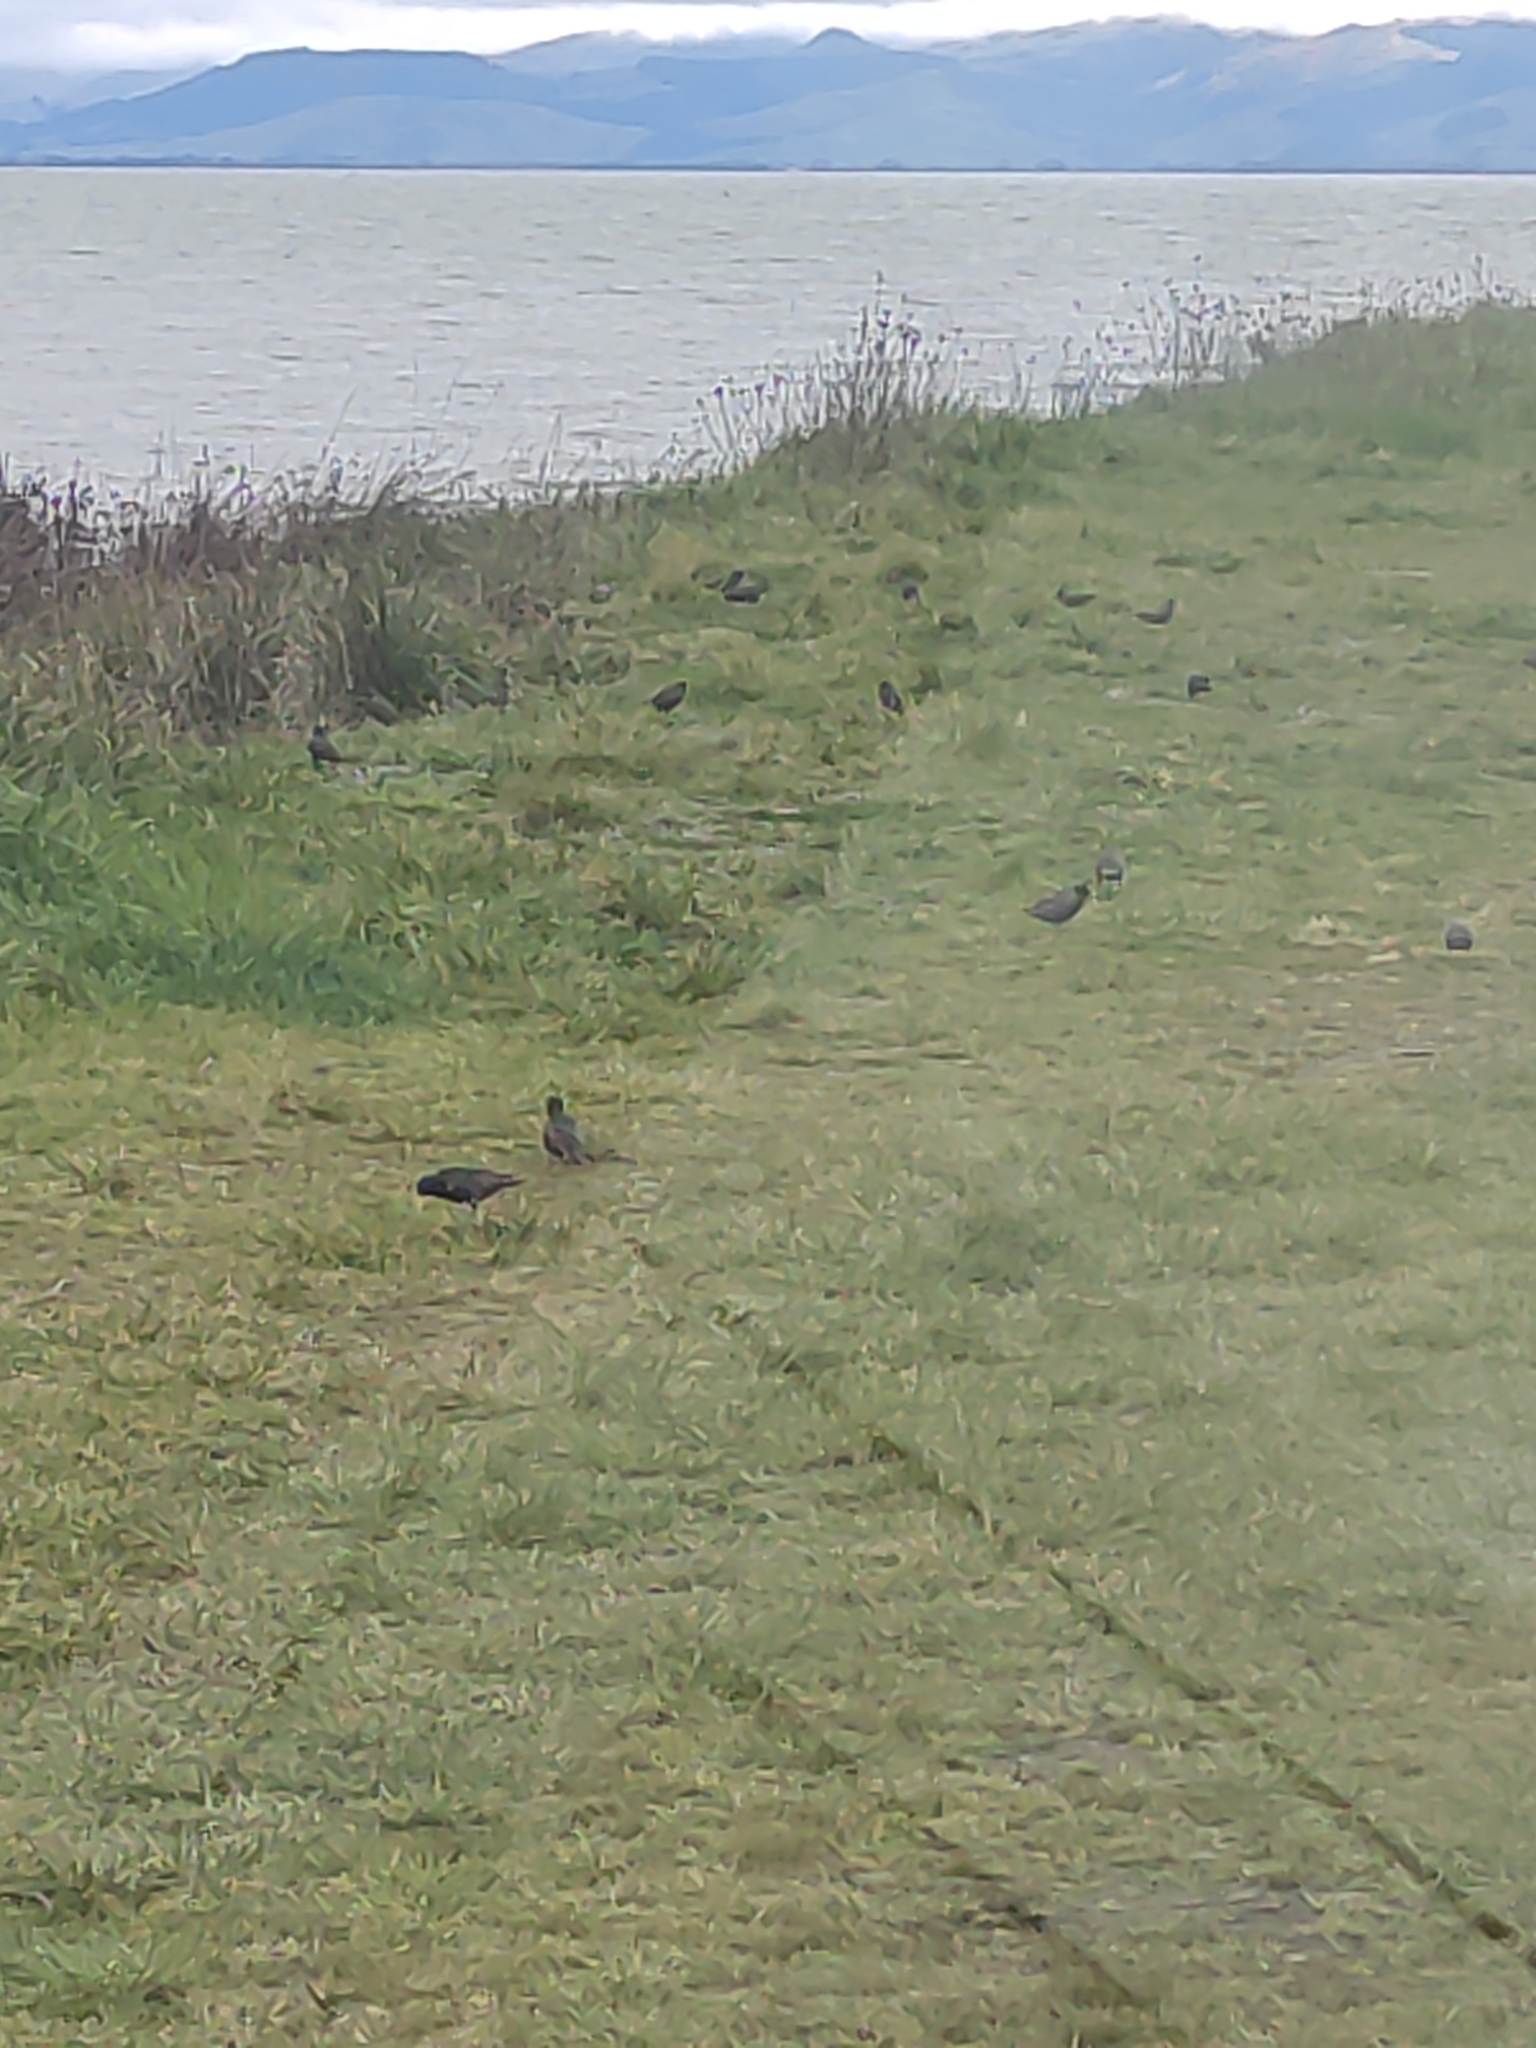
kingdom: Animalia
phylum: Chordata
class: Aves
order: Passeriformes
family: Sturnidae
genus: Sturnus
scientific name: Sturnus vulgaris
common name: Common starling
